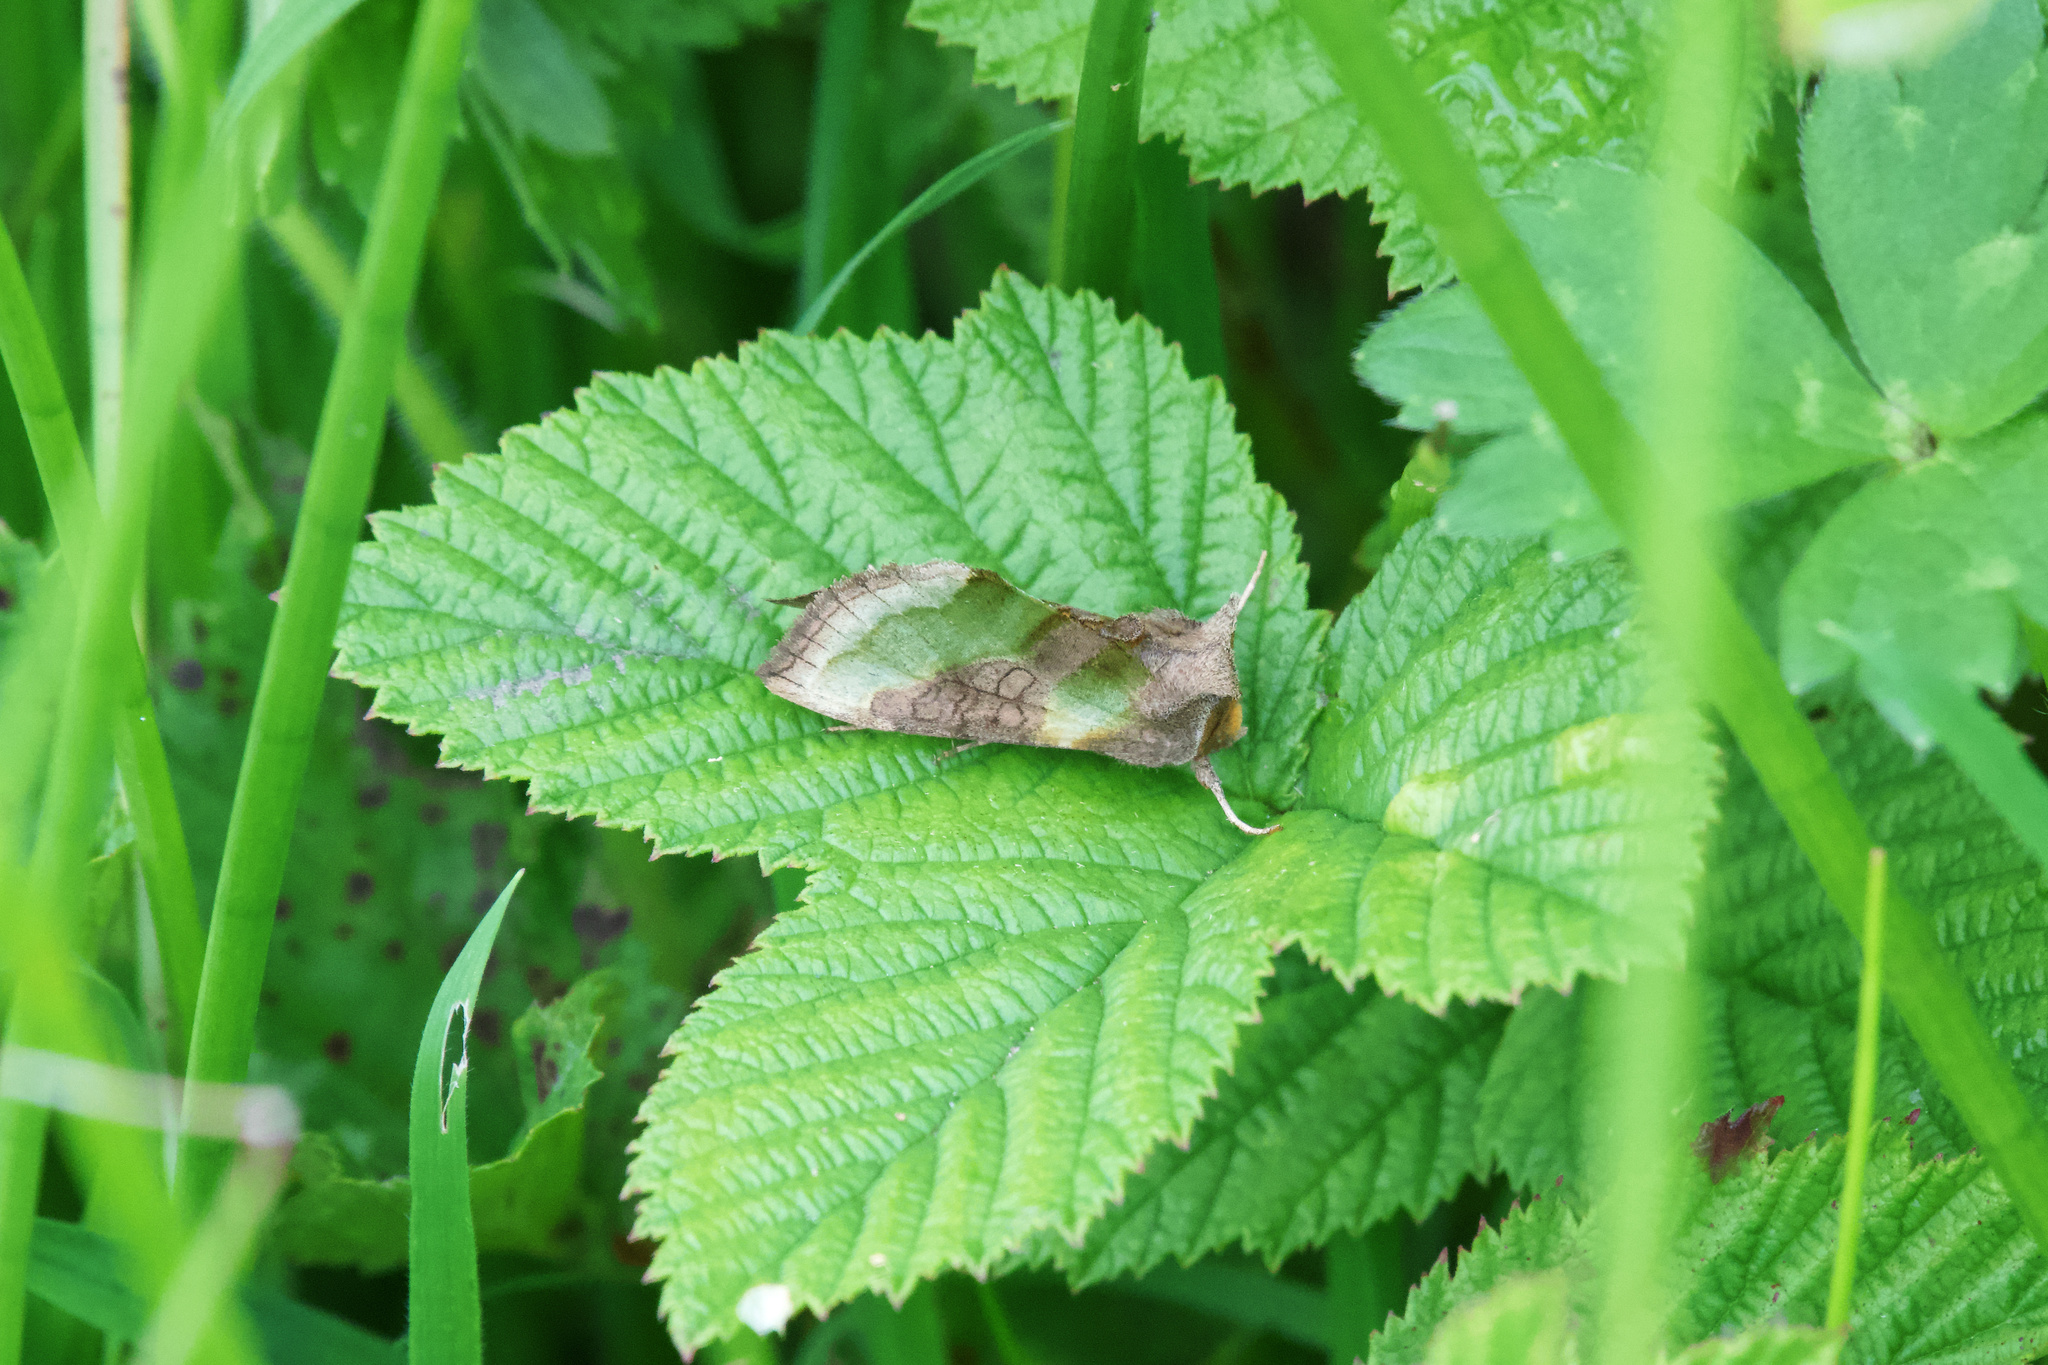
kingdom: Animalia
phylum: Arthropoda
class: Insecta
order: Lepidoptera
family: Noctuidae
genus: Diachrysia
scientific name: Diachrysia chrysitis
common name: Burnished brass
